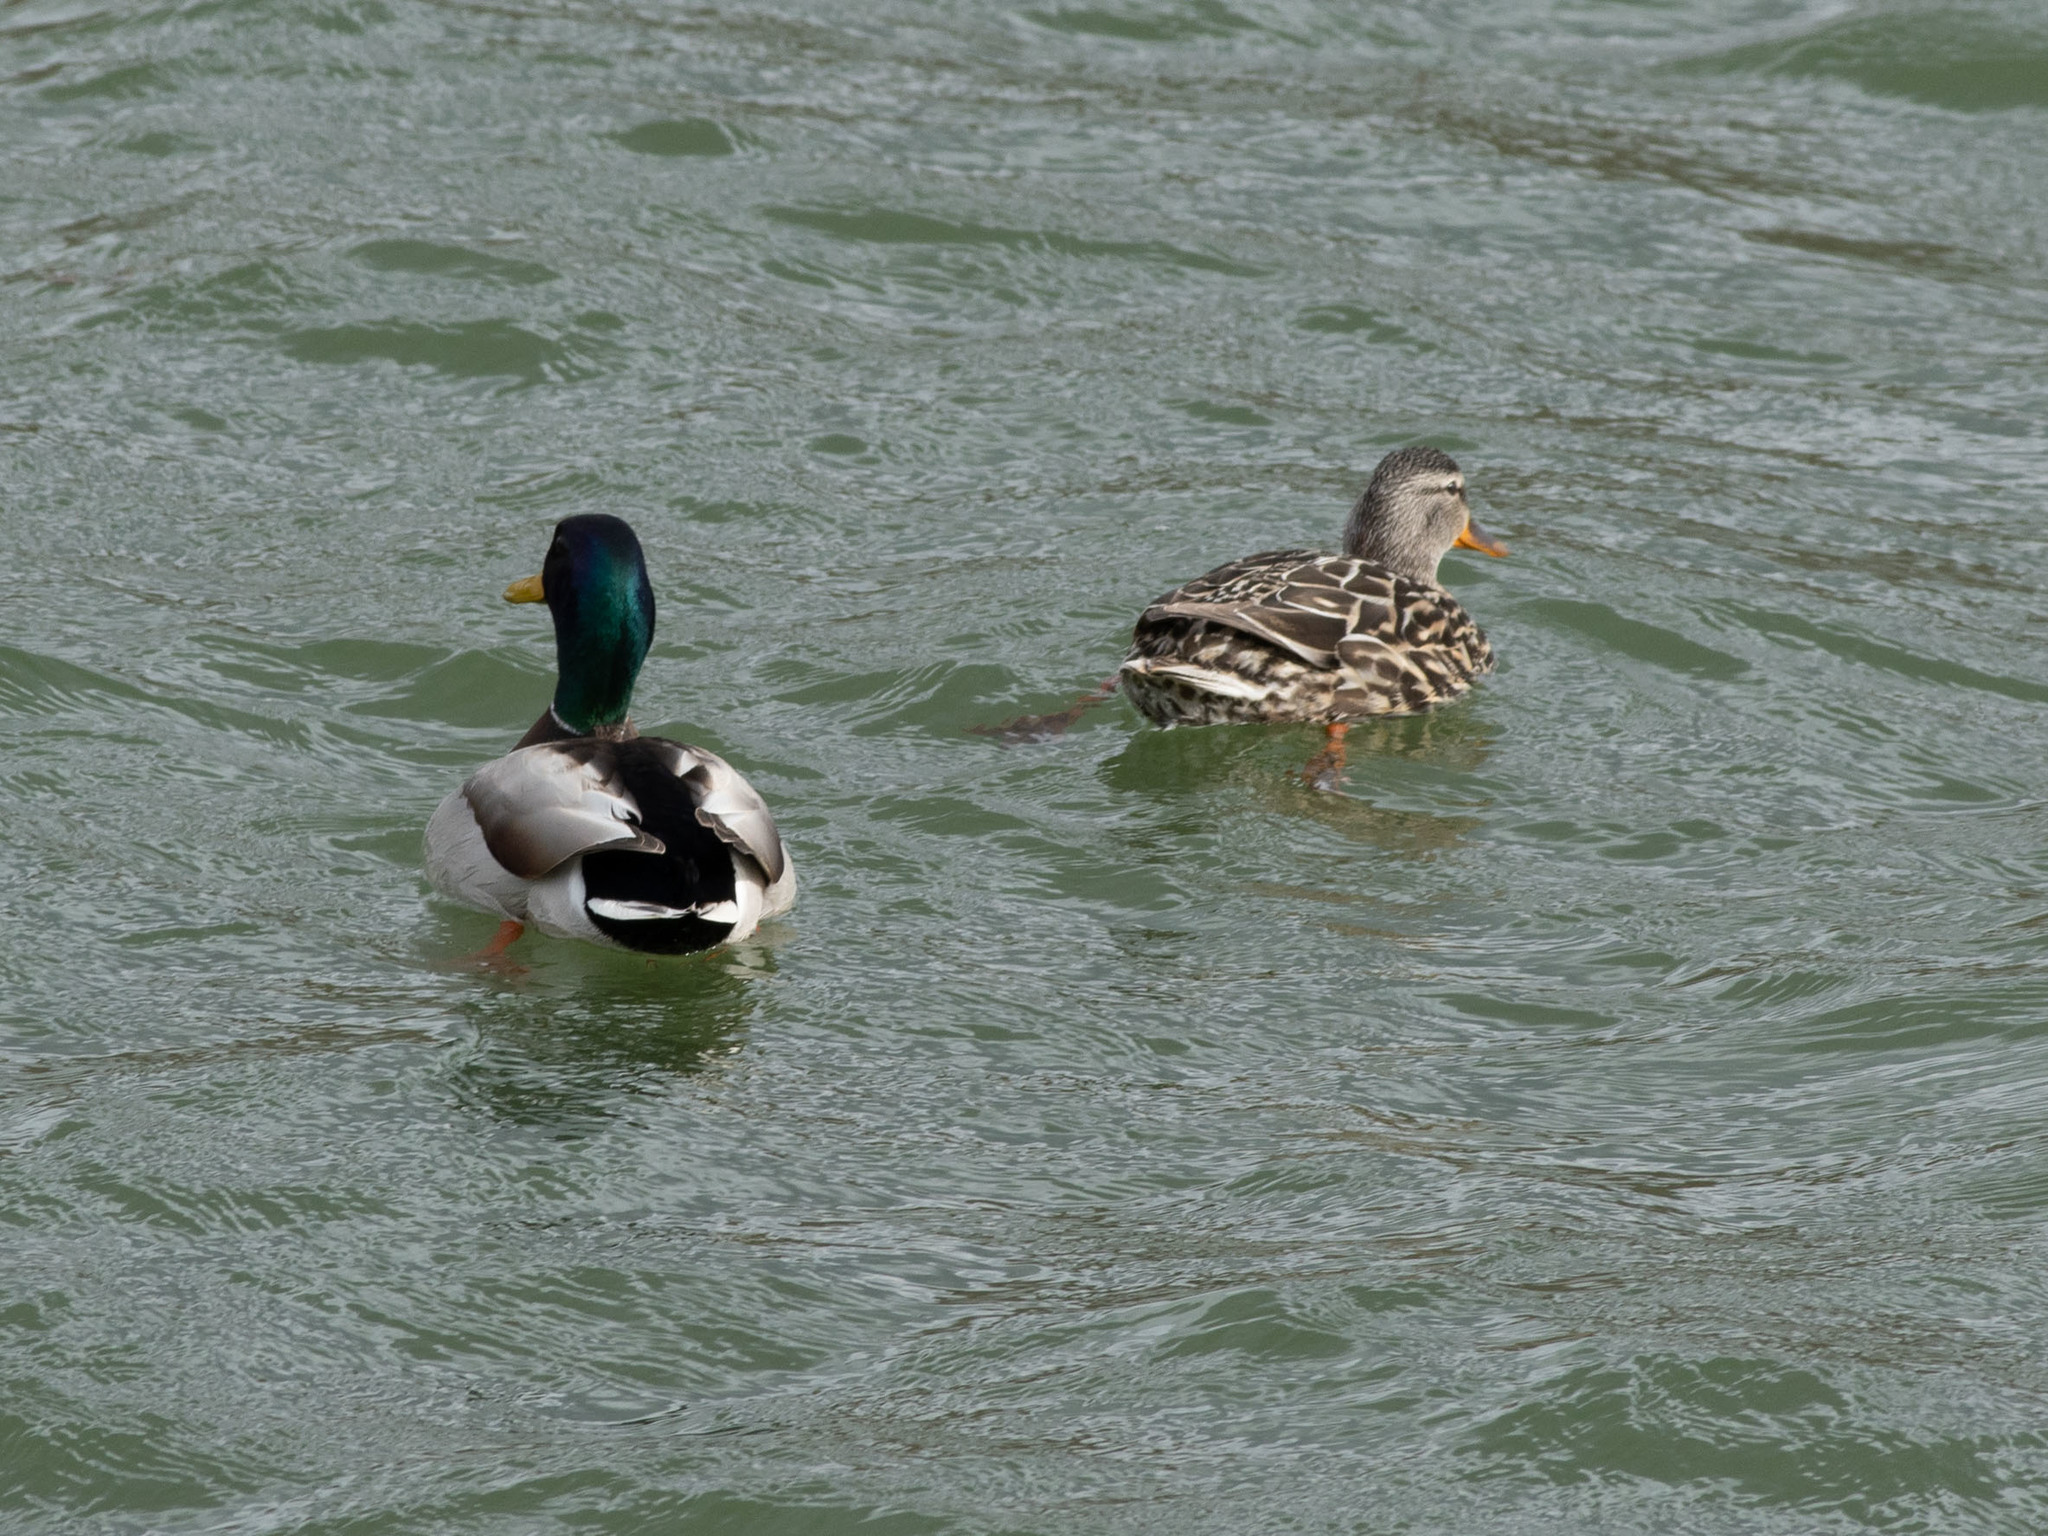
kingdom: Animalia
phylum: Chordata
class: Aves
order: Anseriformes
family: Anatidae
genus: Anas
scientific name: Anas platyrhynchos
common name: Mallard
